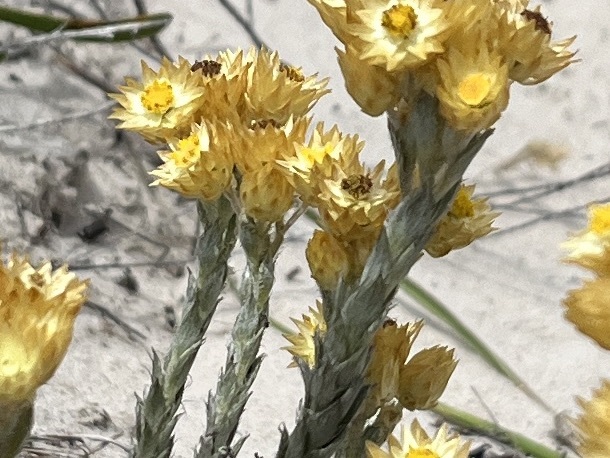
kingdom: Plantae
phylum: Tracheophyta
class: Magnoliopsida
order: Asterales
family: Asteraceae
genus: Achyranthemum
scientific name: Achyranthemum mucronatum
